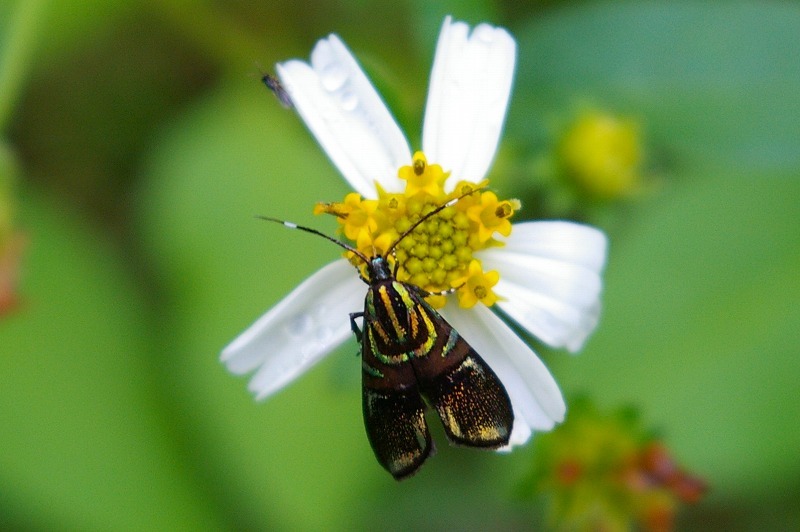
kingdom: Animalia
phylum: Arthropoda
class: Insecta
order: Lepidoptera
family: Choreutidae
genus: Saptha
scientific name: Saptha divitiosa
